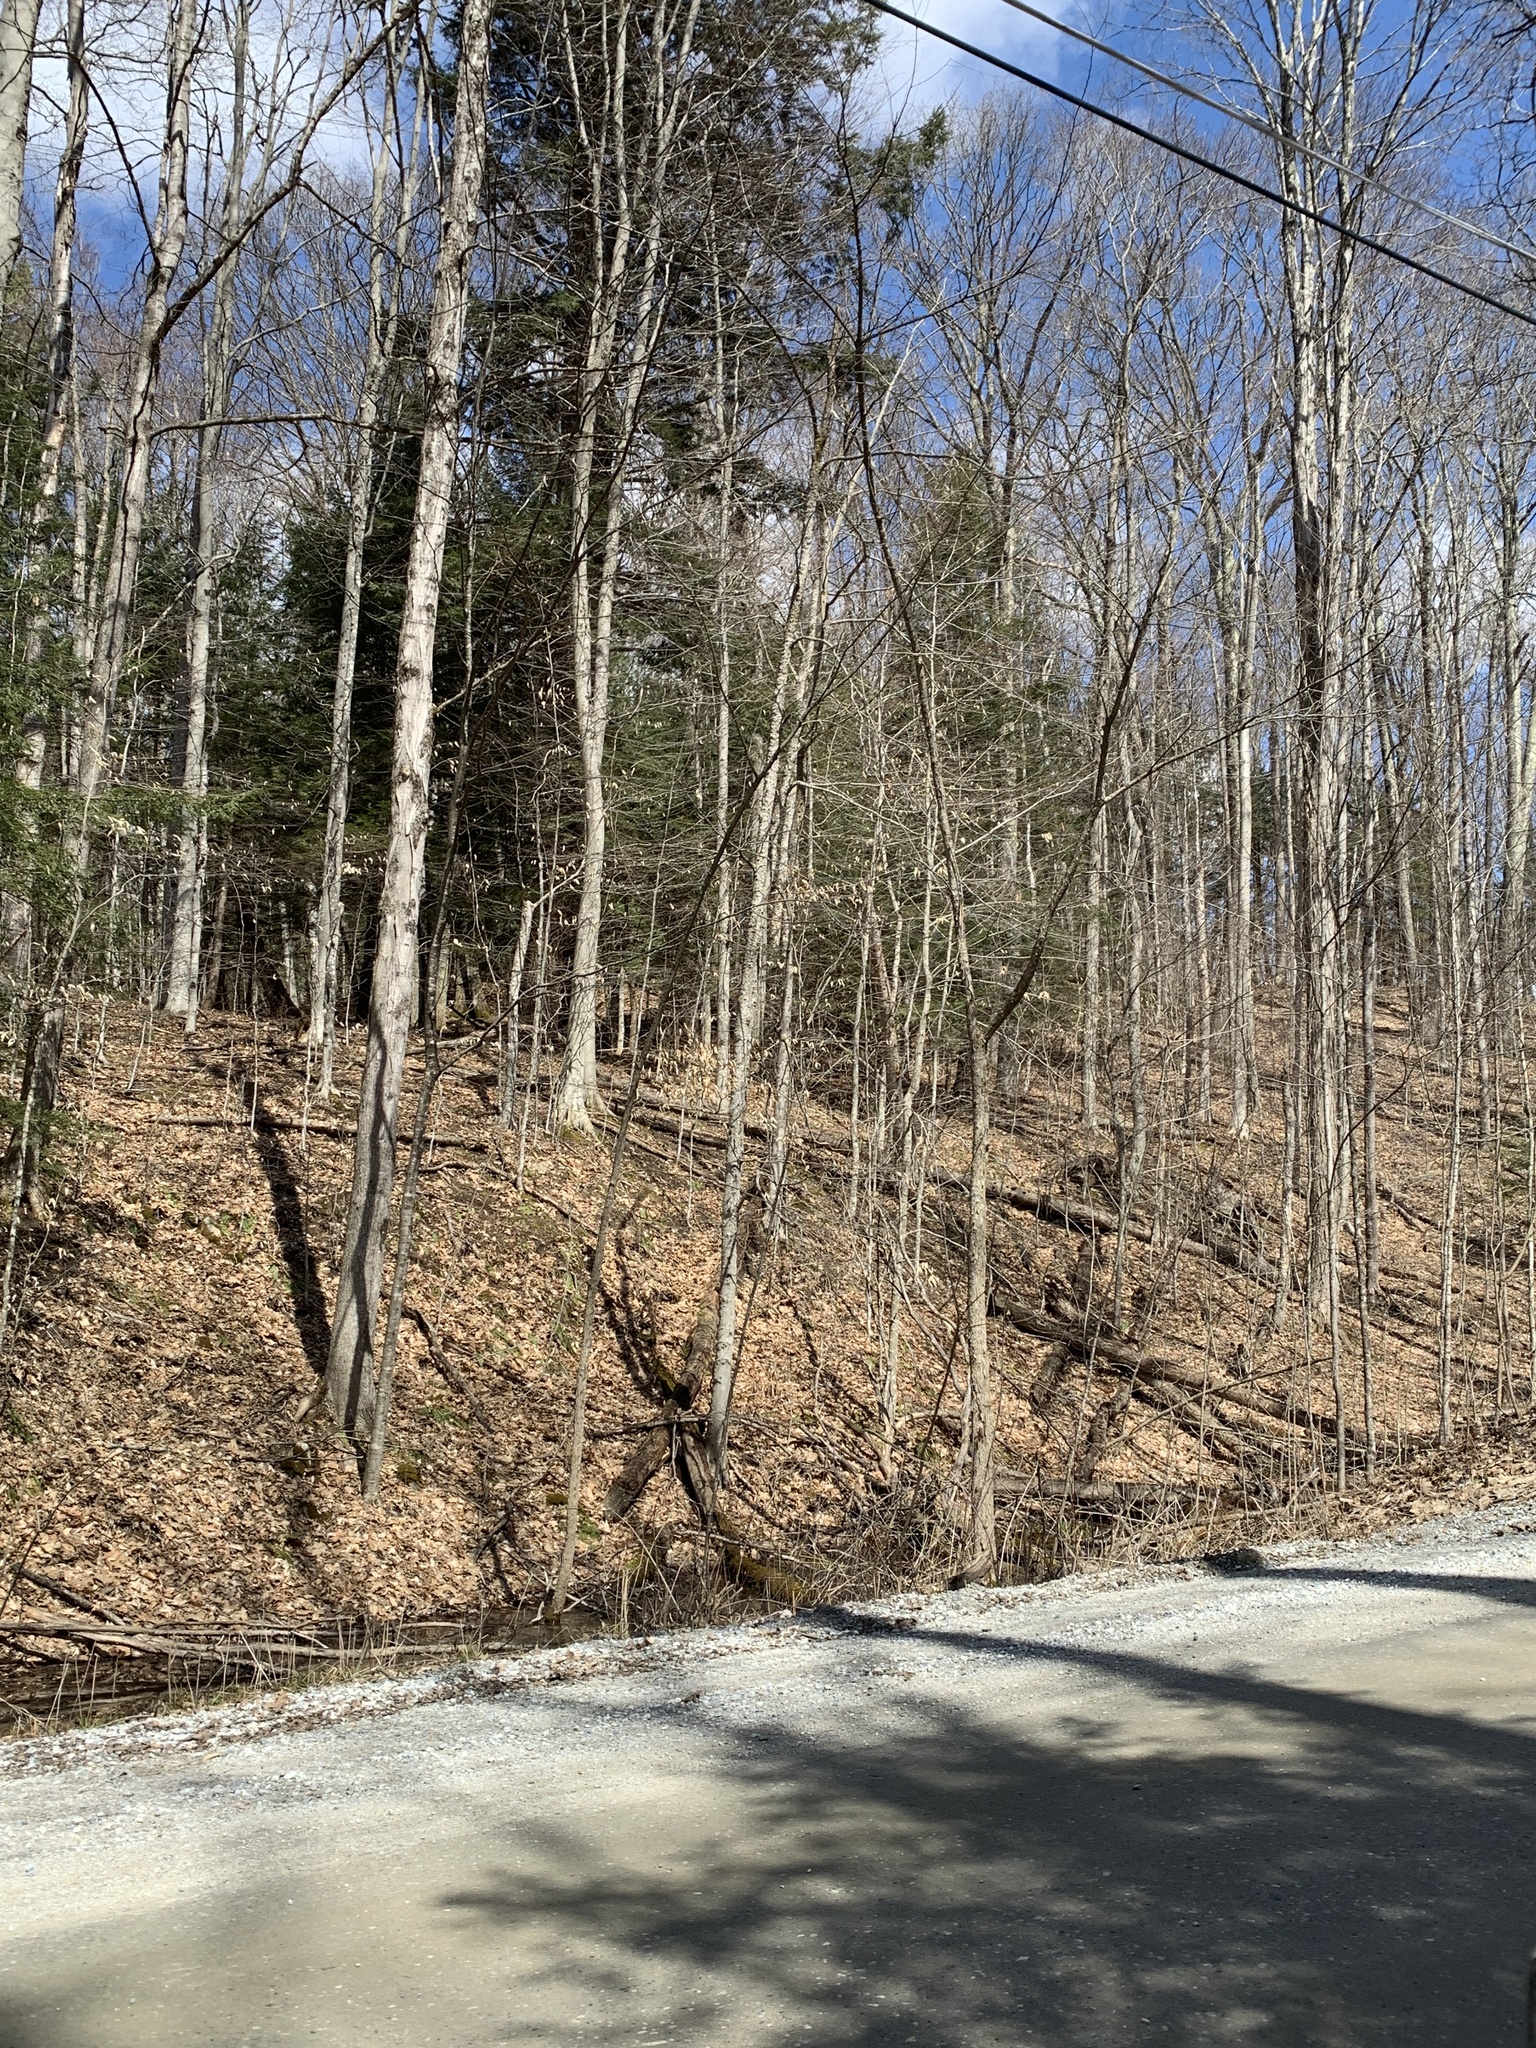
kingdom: Plantae
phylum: Tracheophyta
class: Magnoliopsida
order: Fagales
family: Fagaceae
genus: Fagus
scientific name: Fagus grandifolia
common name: American beech
